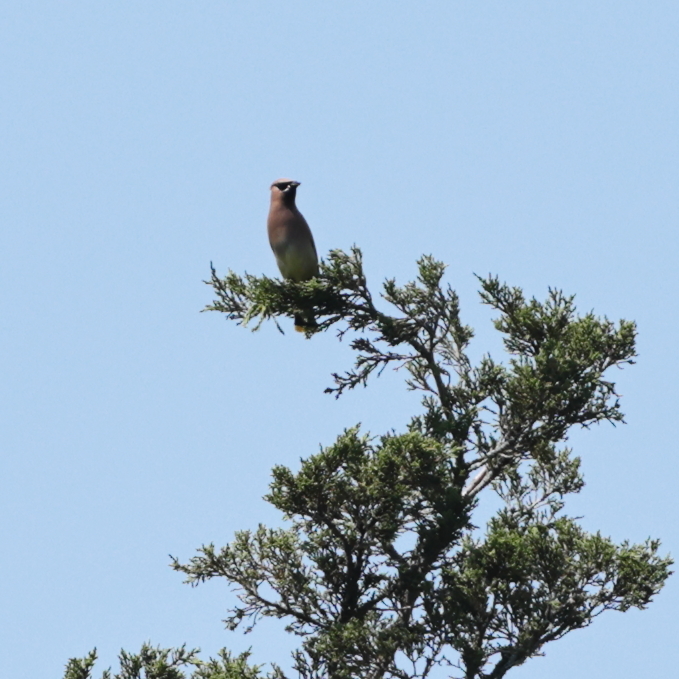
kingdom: Animalia
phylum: Chordata
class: Aves
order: Passeriformes
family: Bombycillidae
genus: Bombycilla
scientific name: Bombycilla cedrorum
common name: Cedar waxwing
